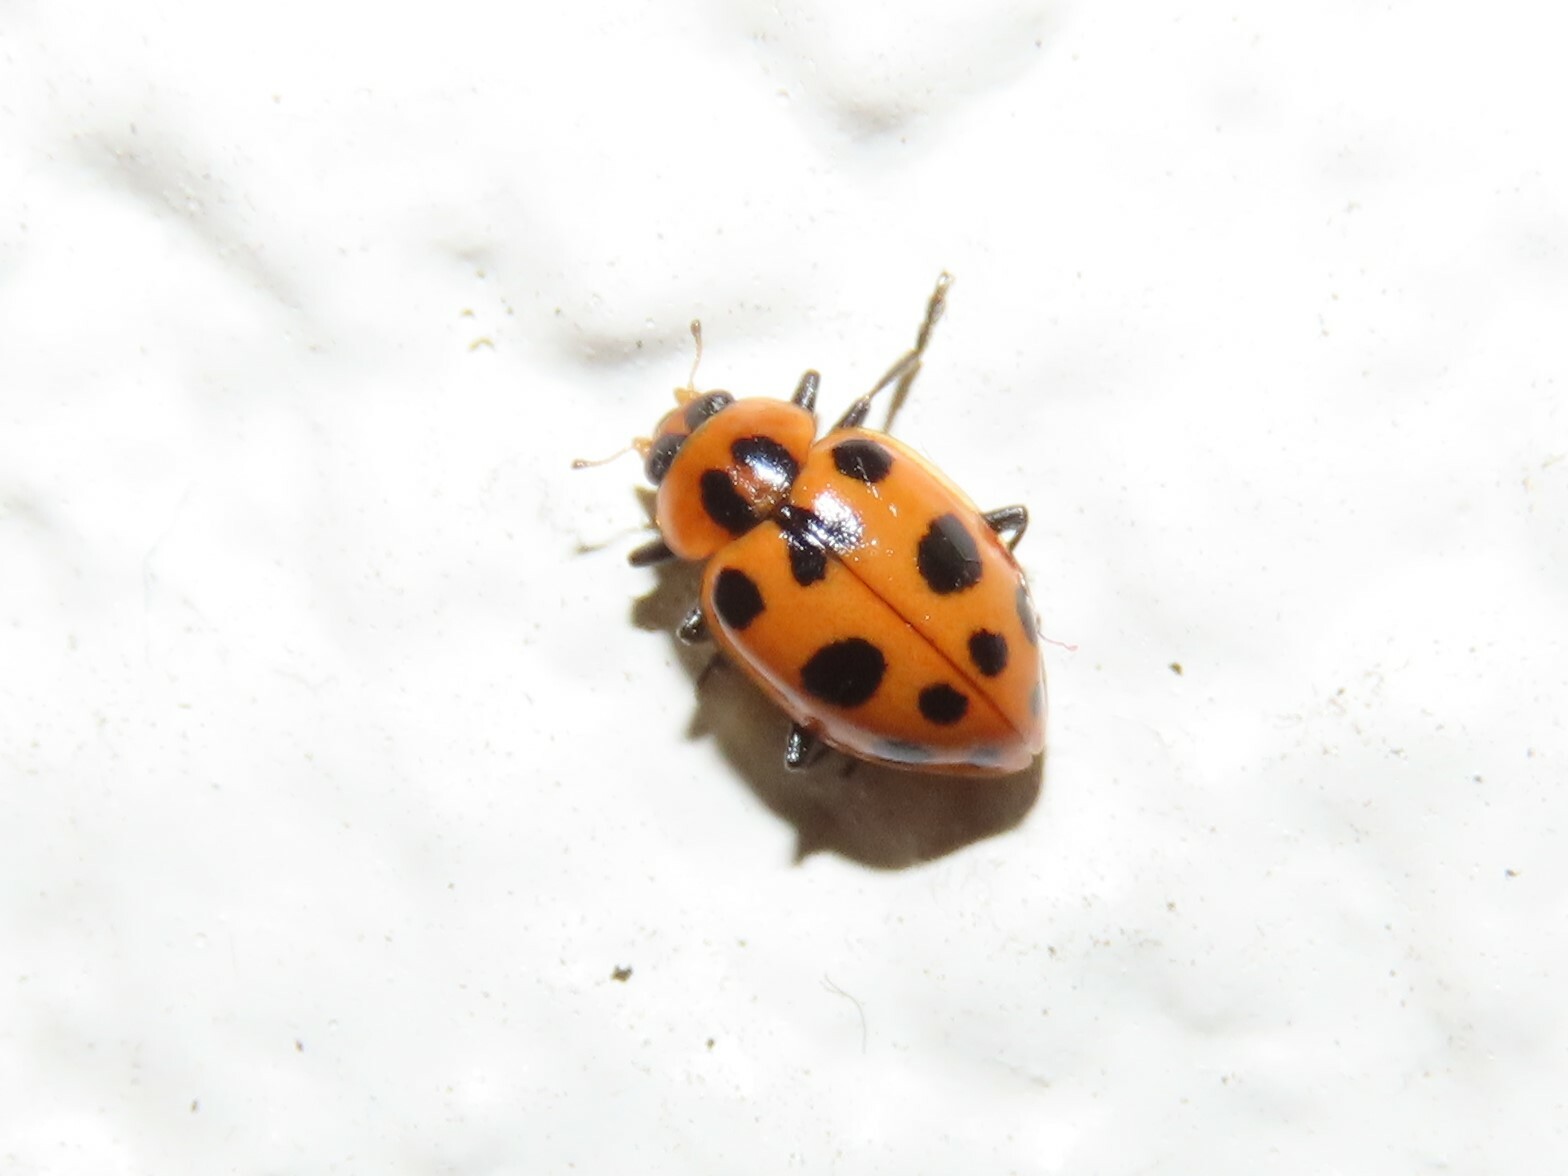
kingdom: Animalia
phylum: Arthropoda
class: Insecta
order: Coleoptera
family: Coccinellidae
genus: Coleomegilla
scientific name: Coleomegilla maculata
